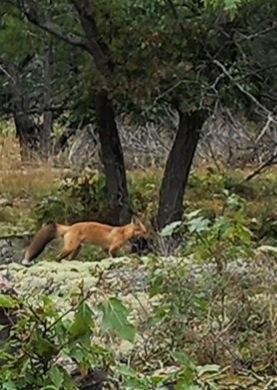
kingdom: Animalia
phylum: Chordata
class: Mammalia
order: Carnivora
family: Canidae
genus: Vulpes
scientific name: Vulpes vulpes
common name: Red fox
